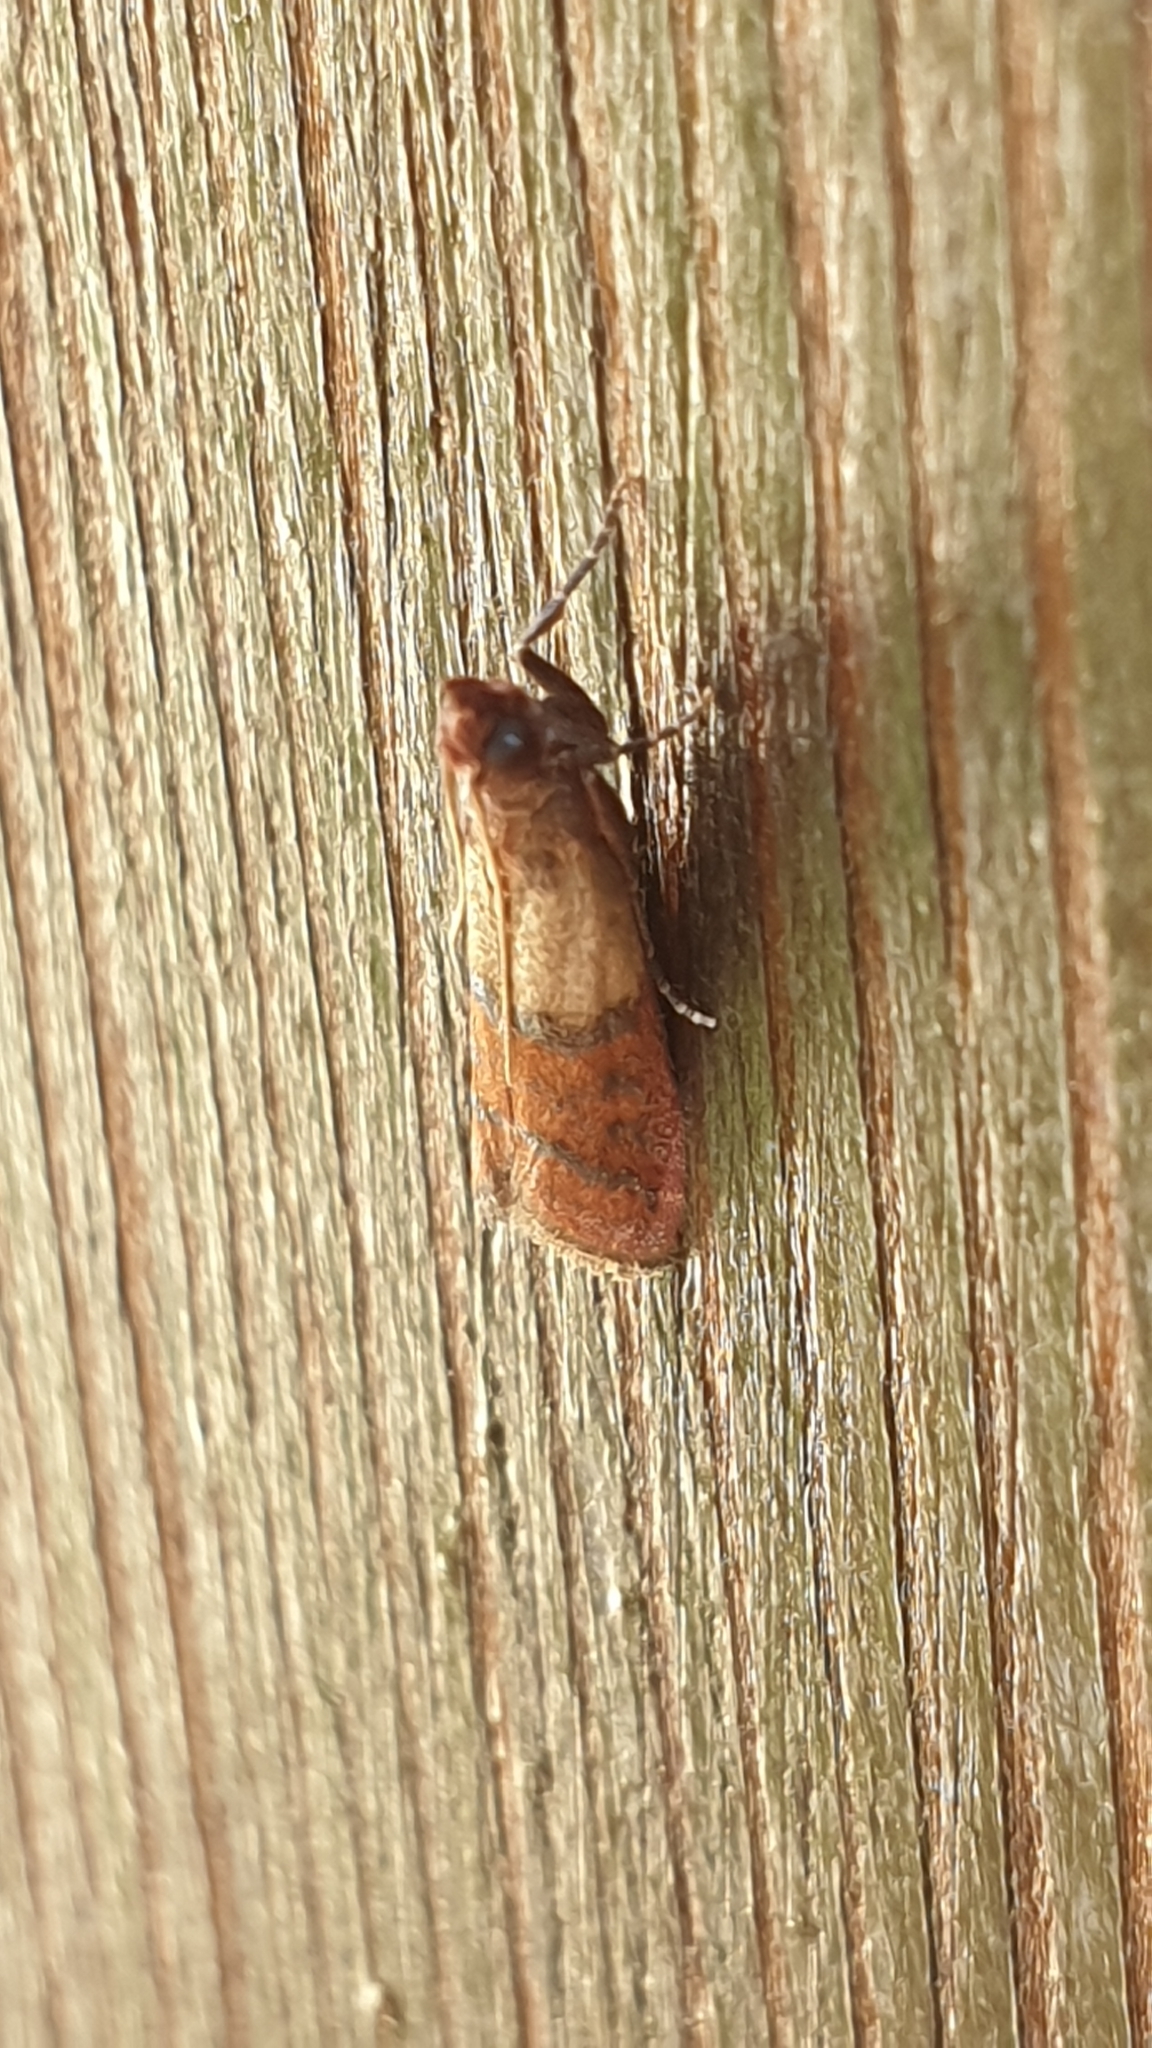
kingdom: Animalia
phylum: Arthropoda
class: Insecta
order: Lepidoptera
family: Pyralidae
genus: Plodia
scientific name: Plodia interpunctella
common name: Indian meal moth
